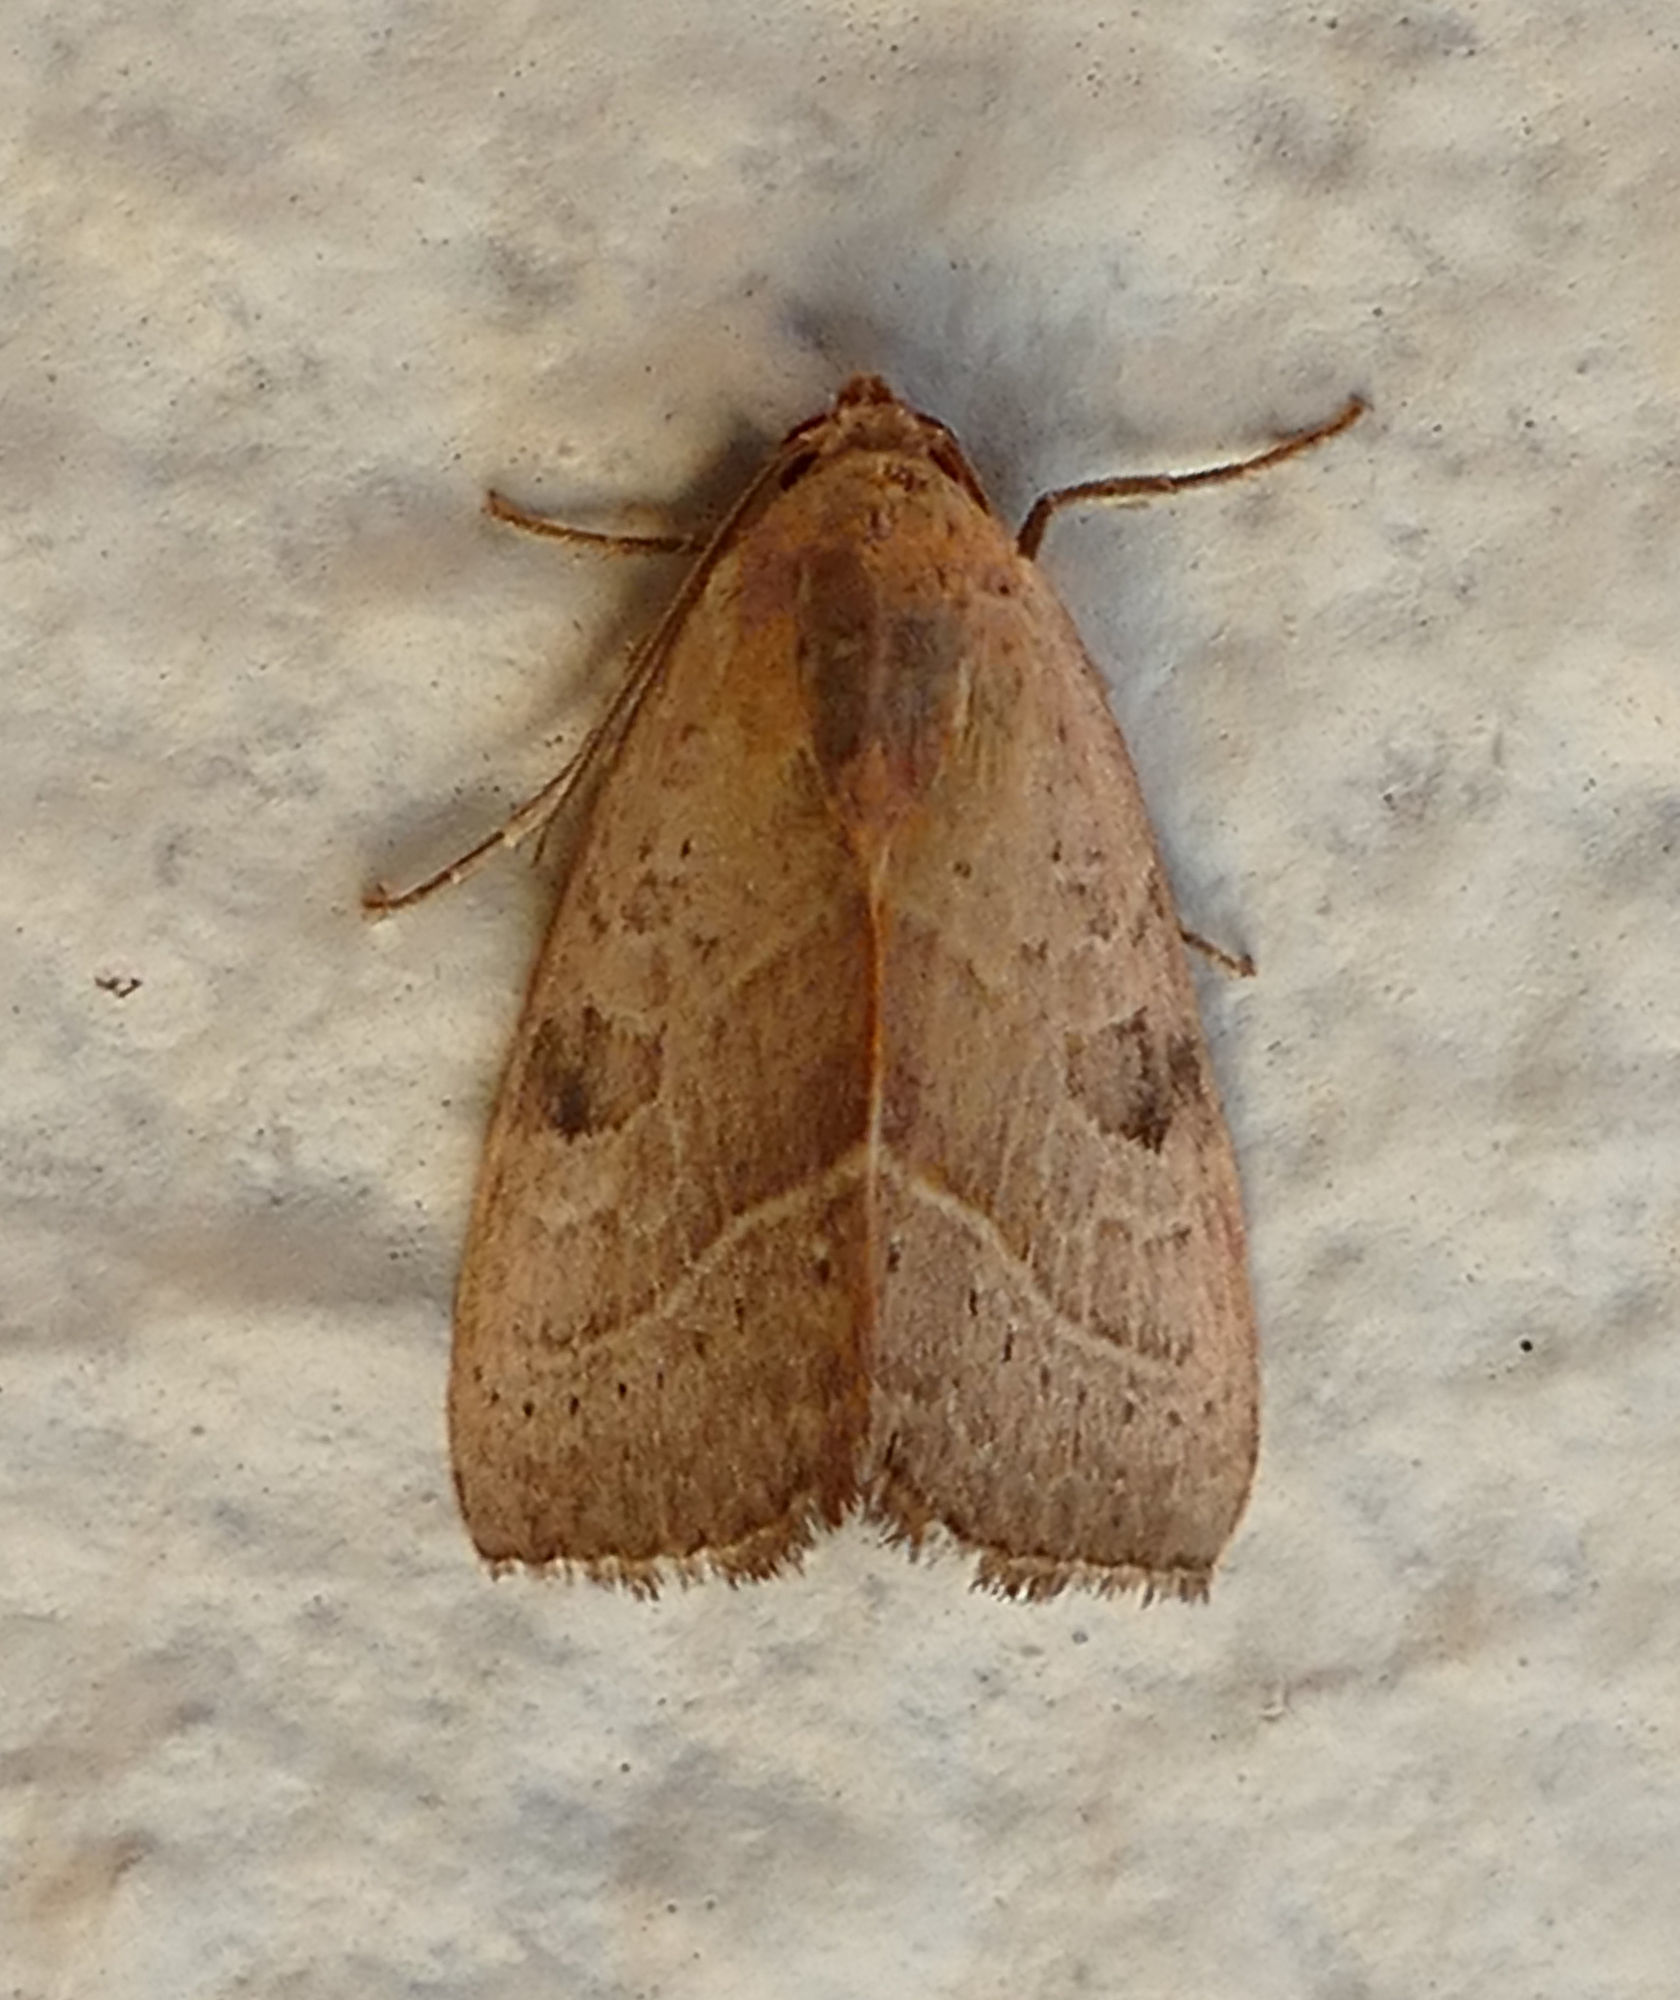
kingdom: Animalia
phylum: Arthropoda
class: Insecta
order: Lepidoptera
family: Noctuidae
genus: Galgula
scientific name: Galgula partita
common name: Wedgeling
